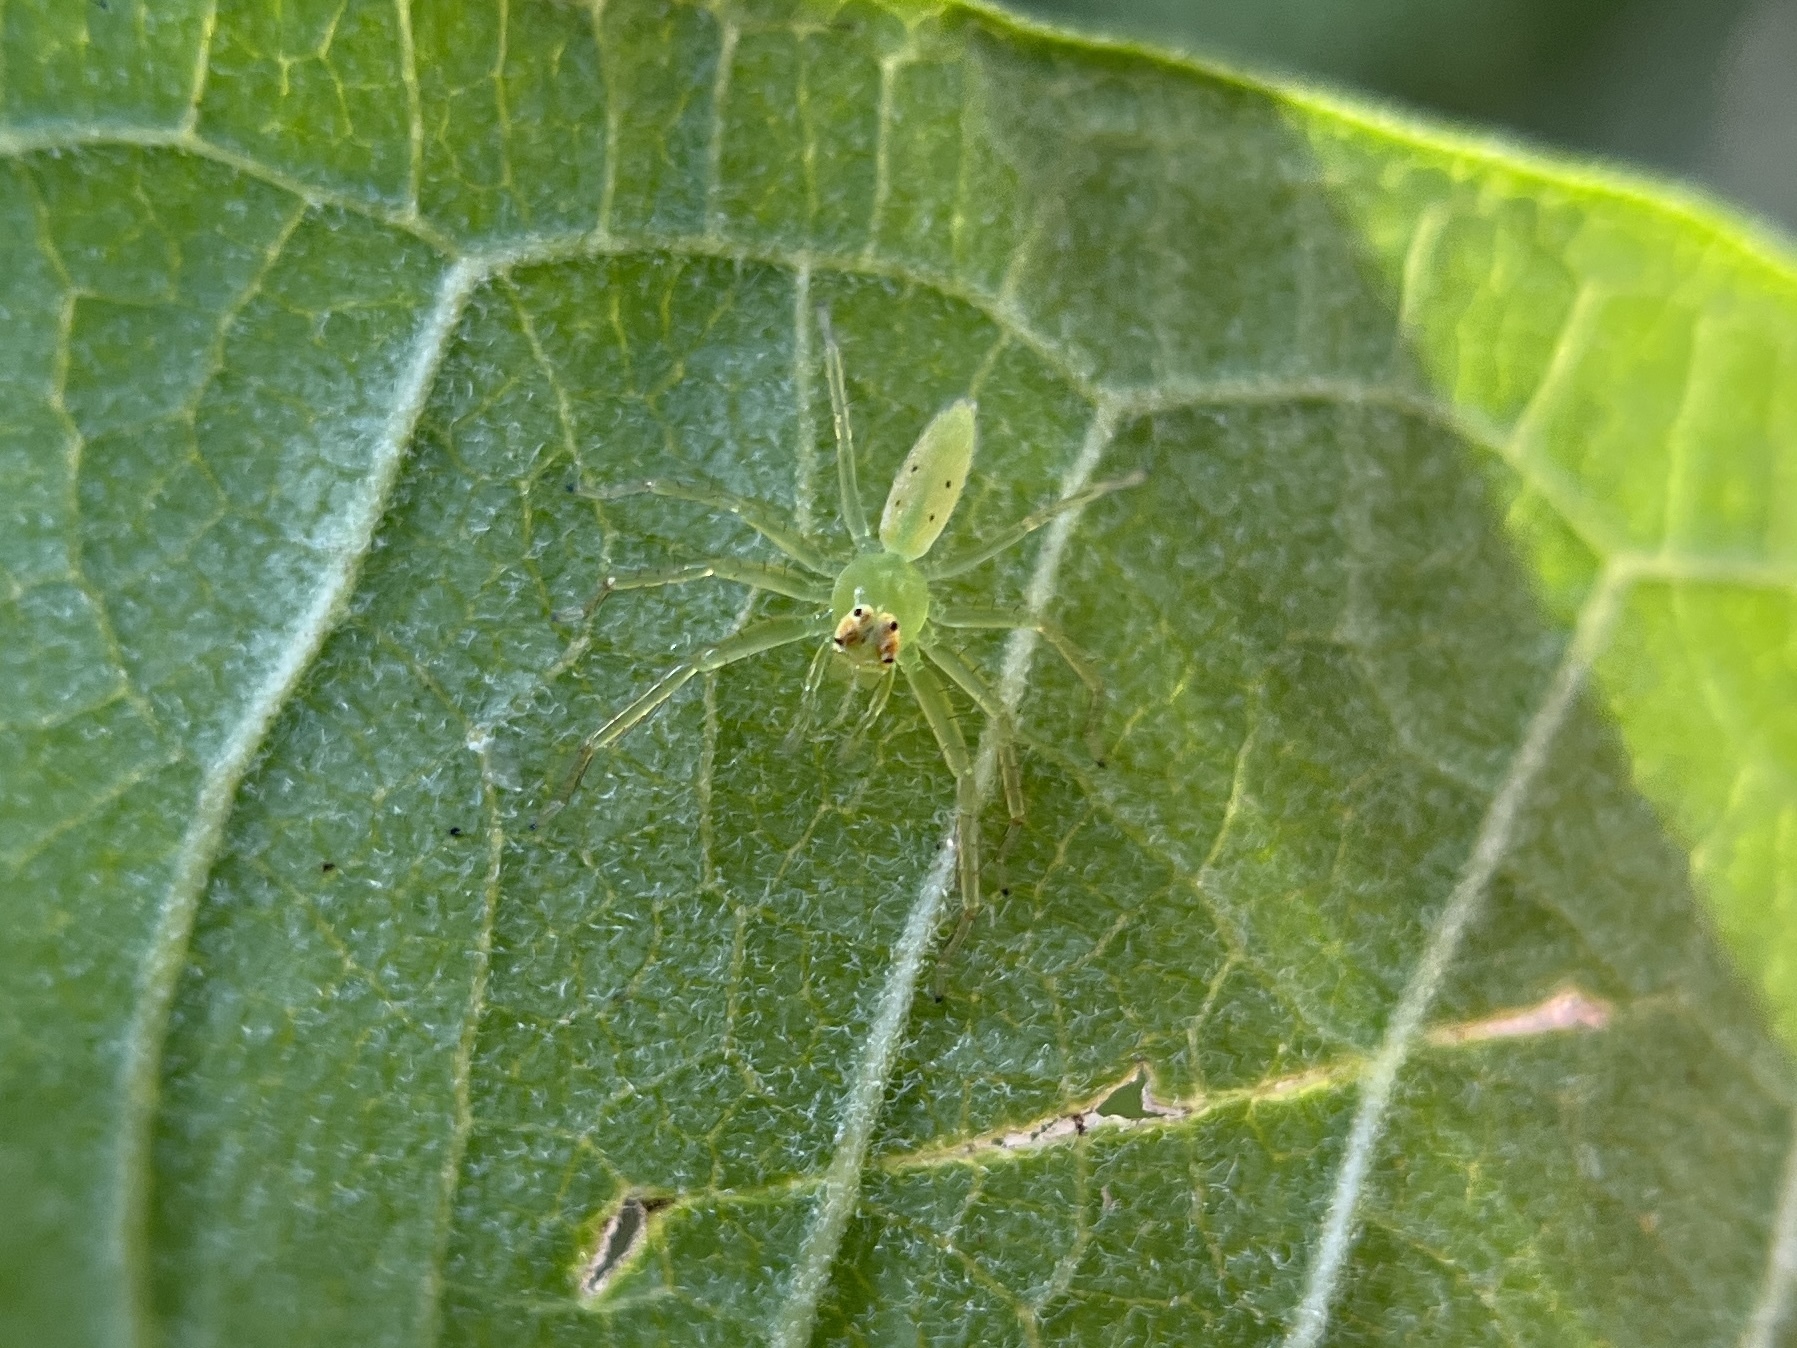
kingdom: Animalia
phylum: Arthropoda
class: Arachnida
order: Araneae
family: Salticidae
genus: Lyssomanes
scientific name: Lyssomanes viridis
